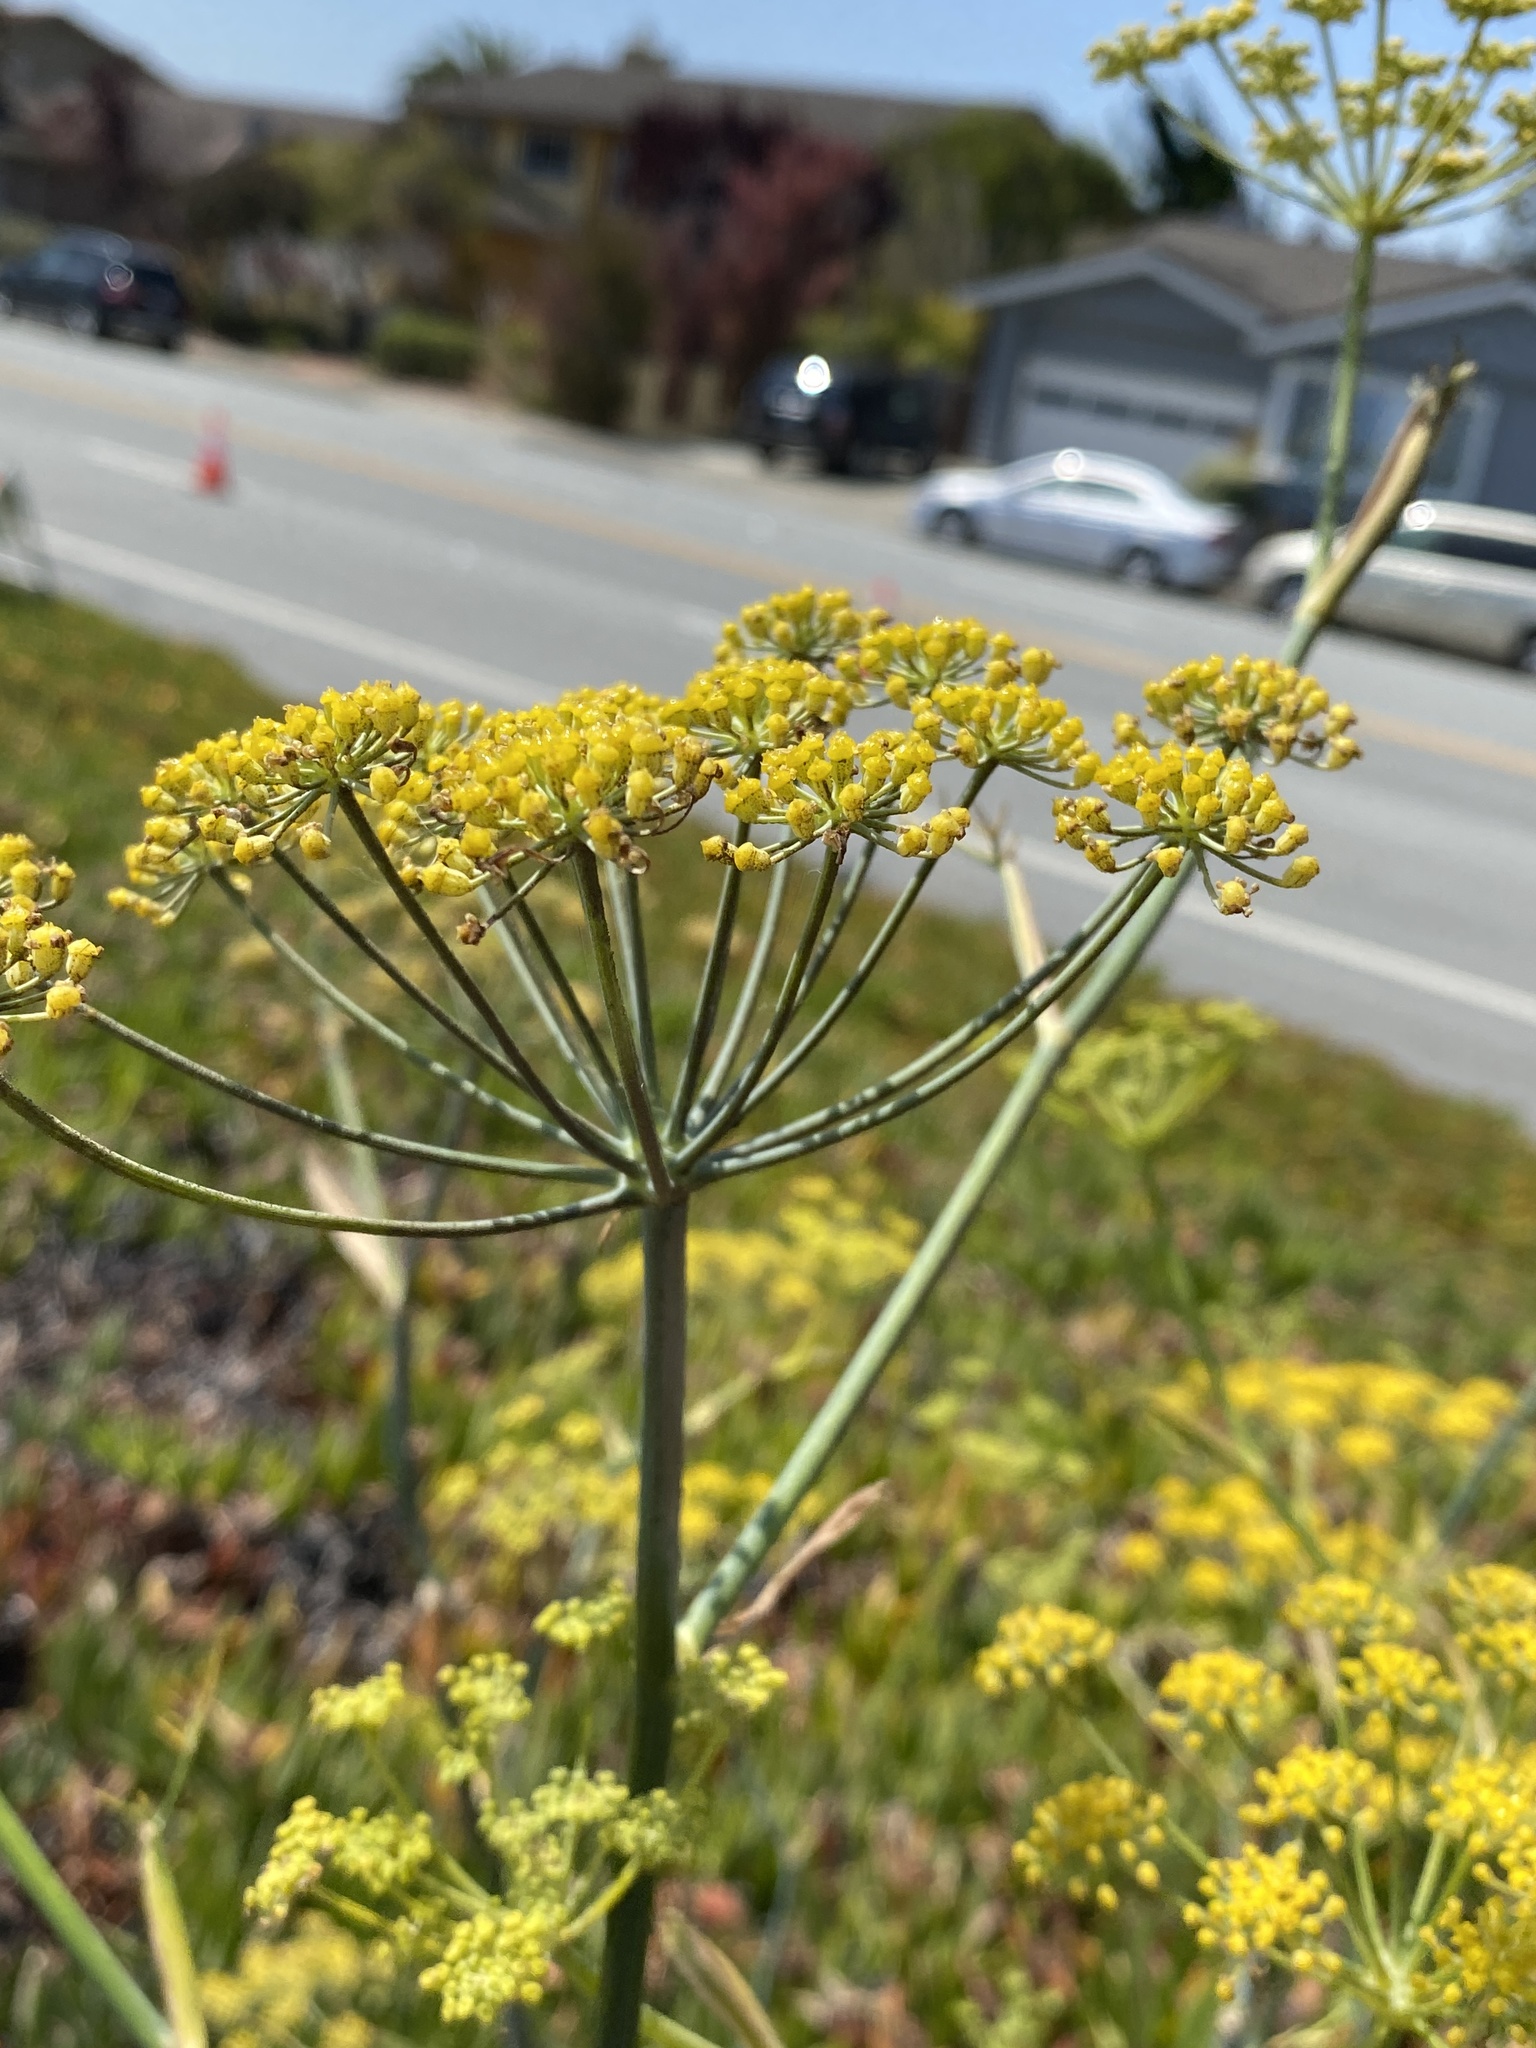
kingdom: Plantae
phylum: Tracheophyta
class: Magnoliopsida
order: Apiales
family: Apiaceae
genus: Foeniculum
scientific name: Foeniculum vulgare
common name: Fennel
